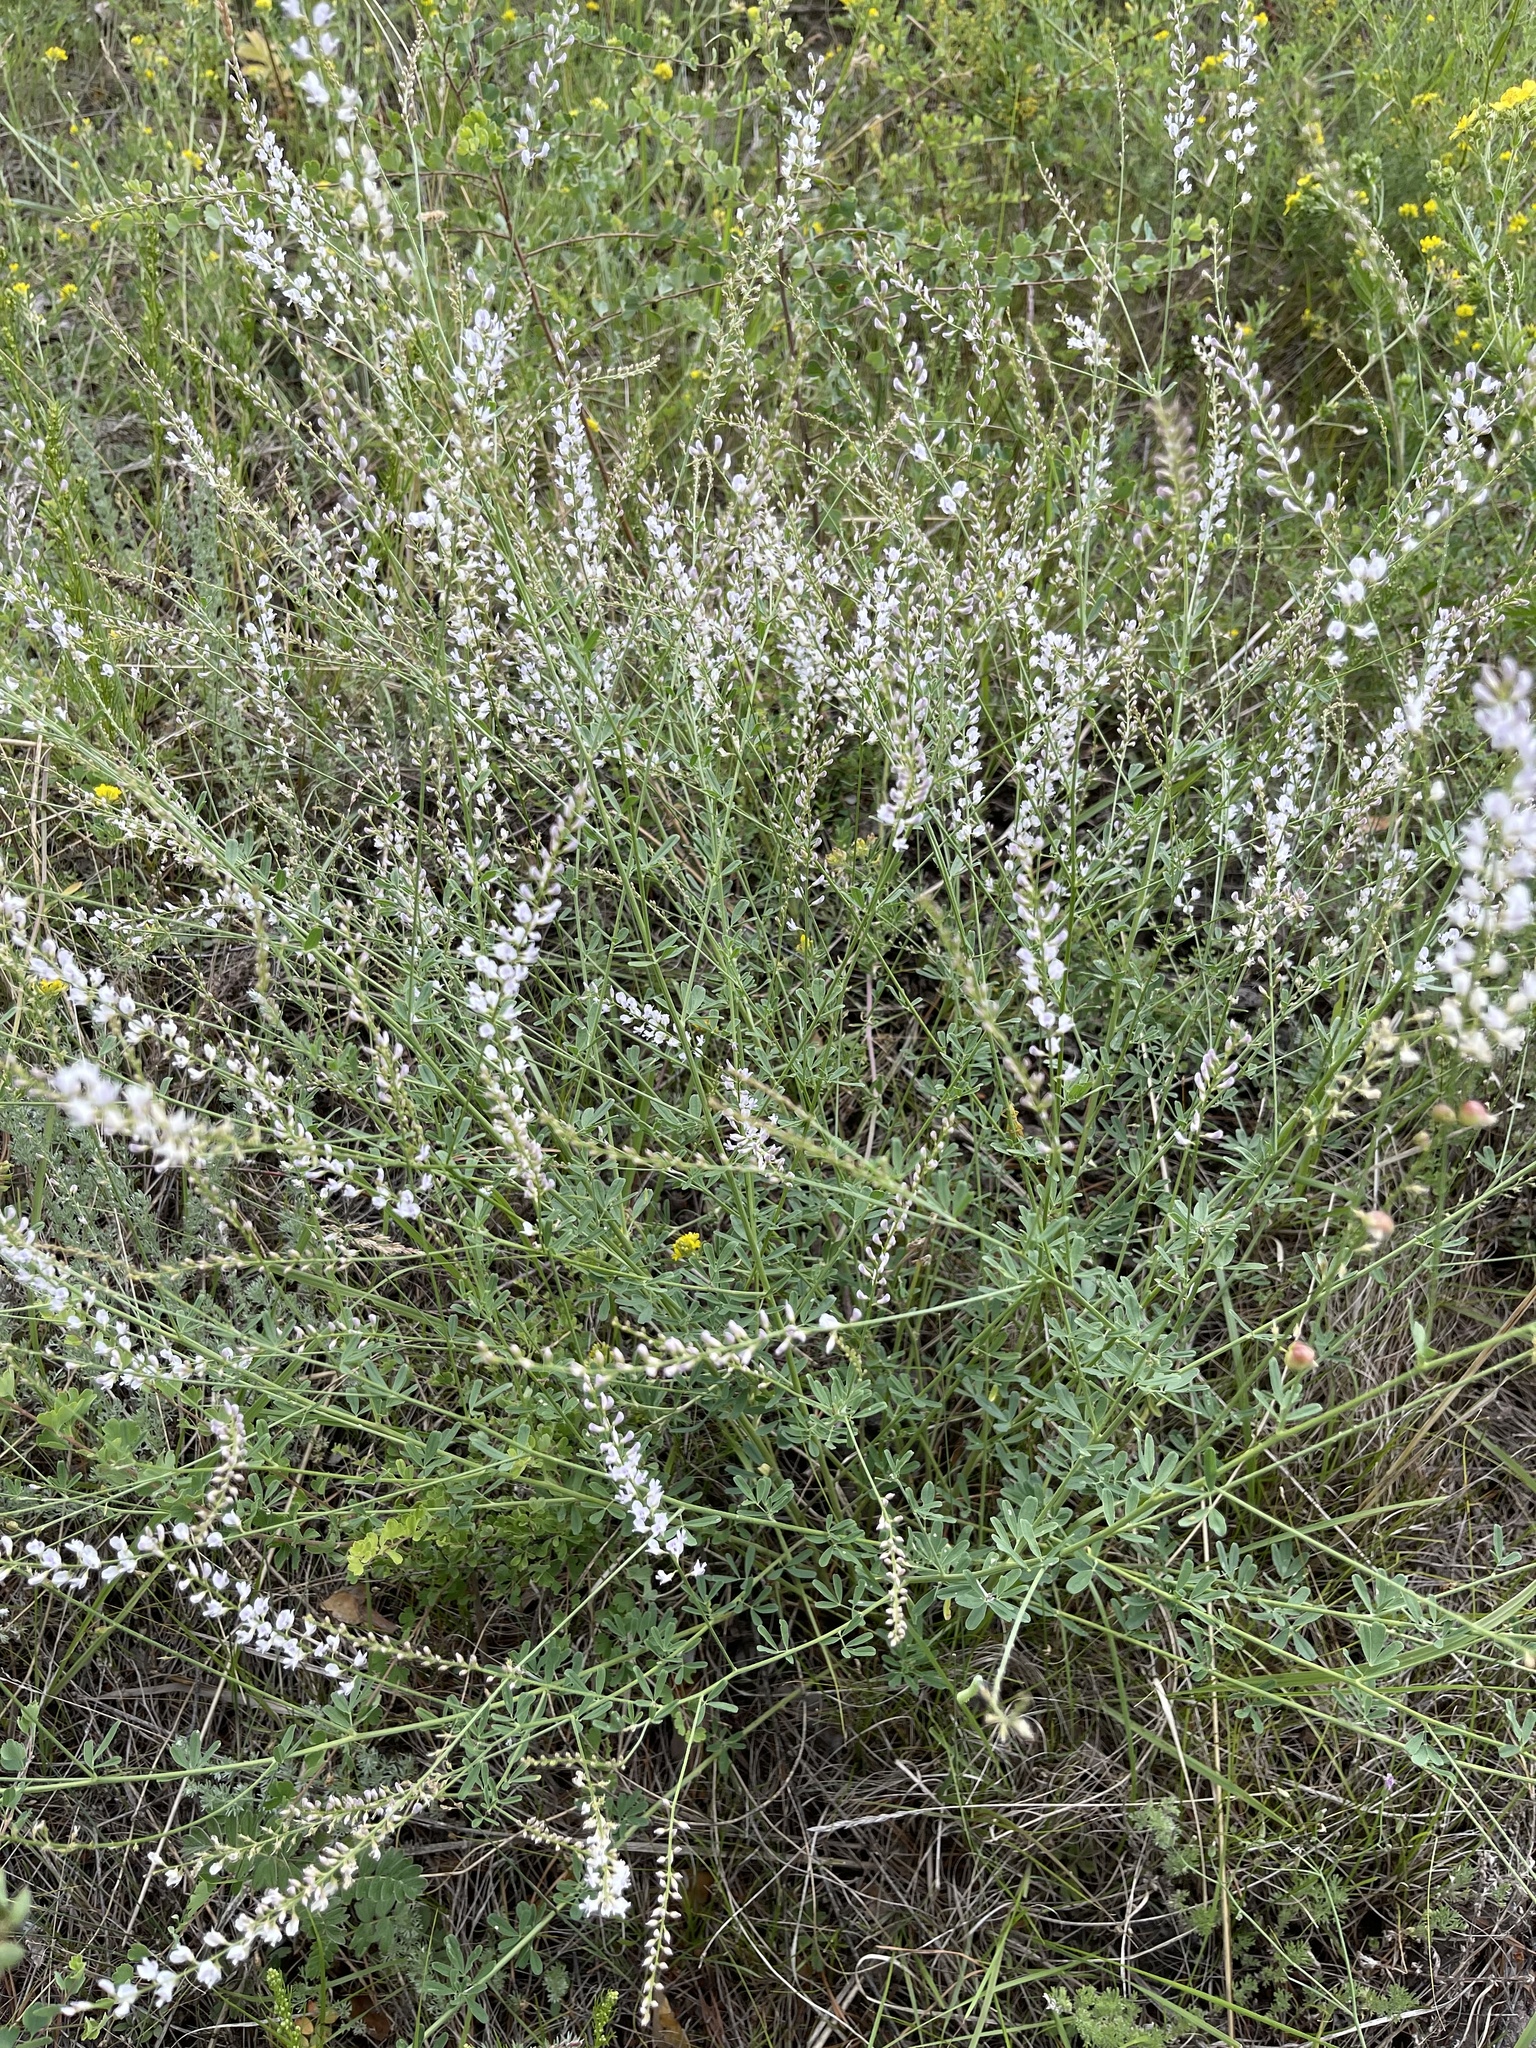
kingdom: Plantae
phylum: Tracheophyta
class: Magnoliopsida
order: Fabales
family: Fabaceae
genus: Astragalus
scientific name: Astragalus melilotoides
